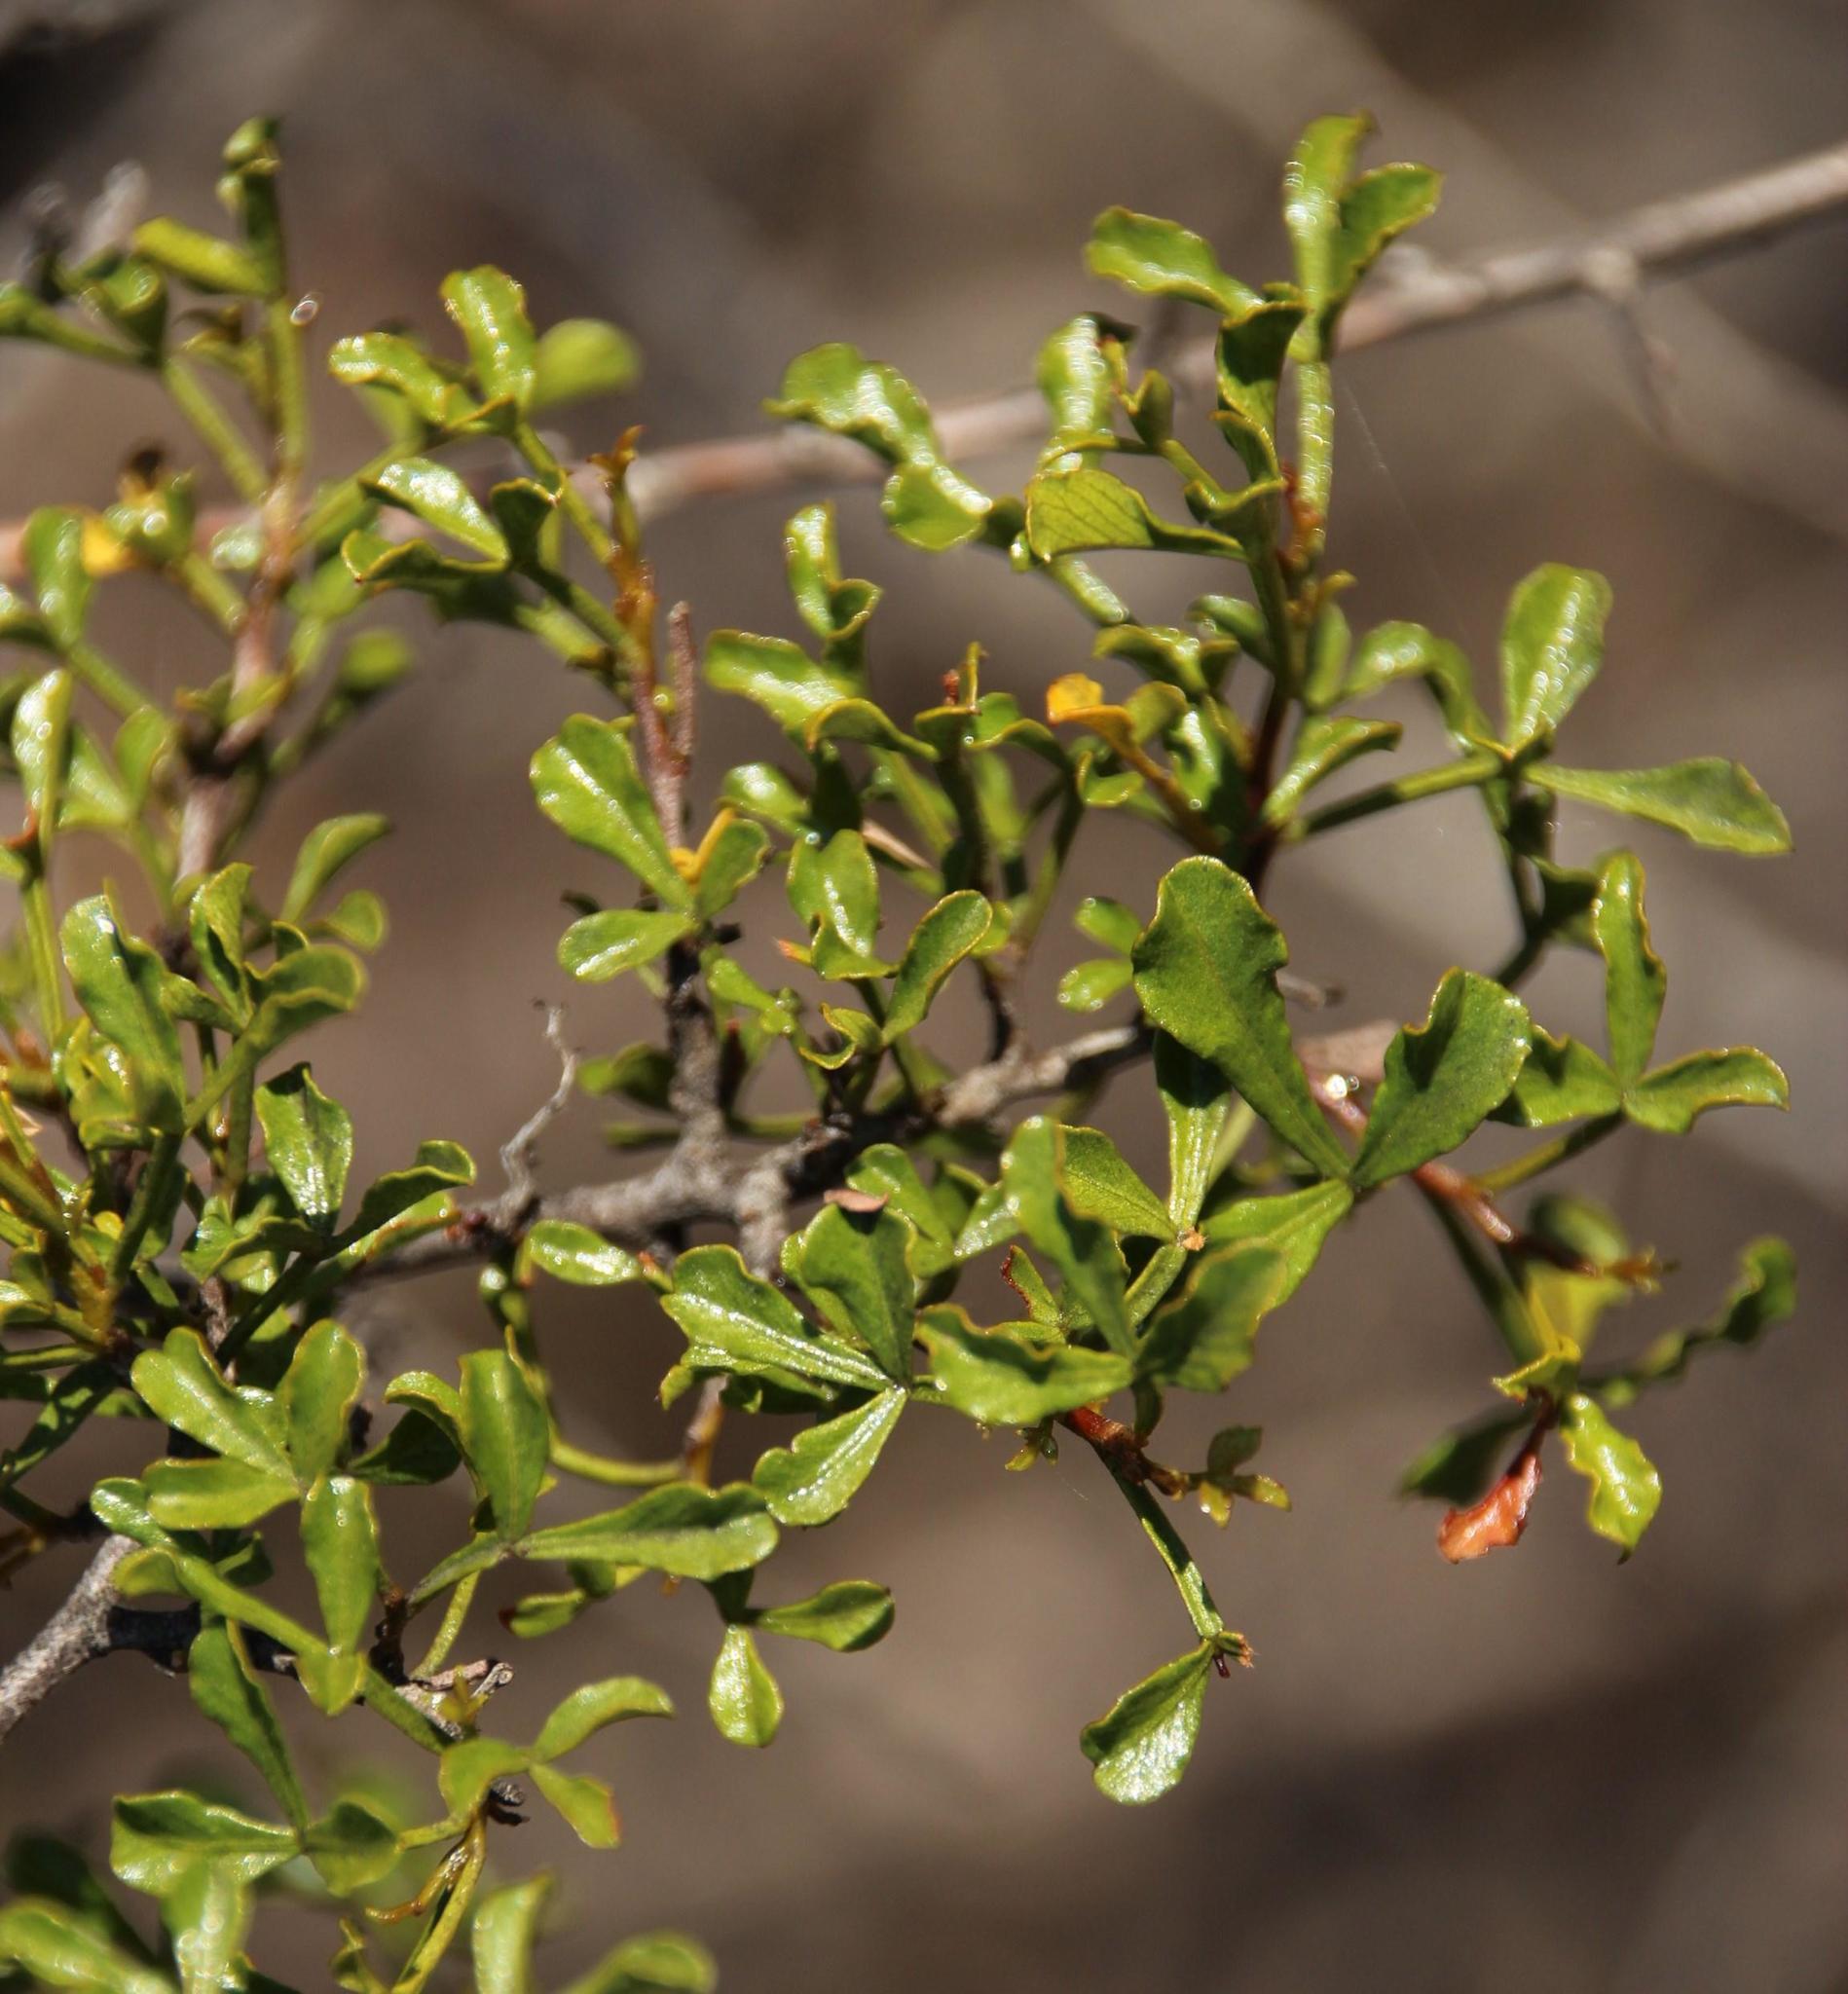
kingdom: Plantae
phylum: Tracheophyta
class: Magnoliopsida
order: Sapindales
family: Anacardiaceae
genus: Searsia
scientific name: Searsia undulata
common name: Namaqua kunibush
